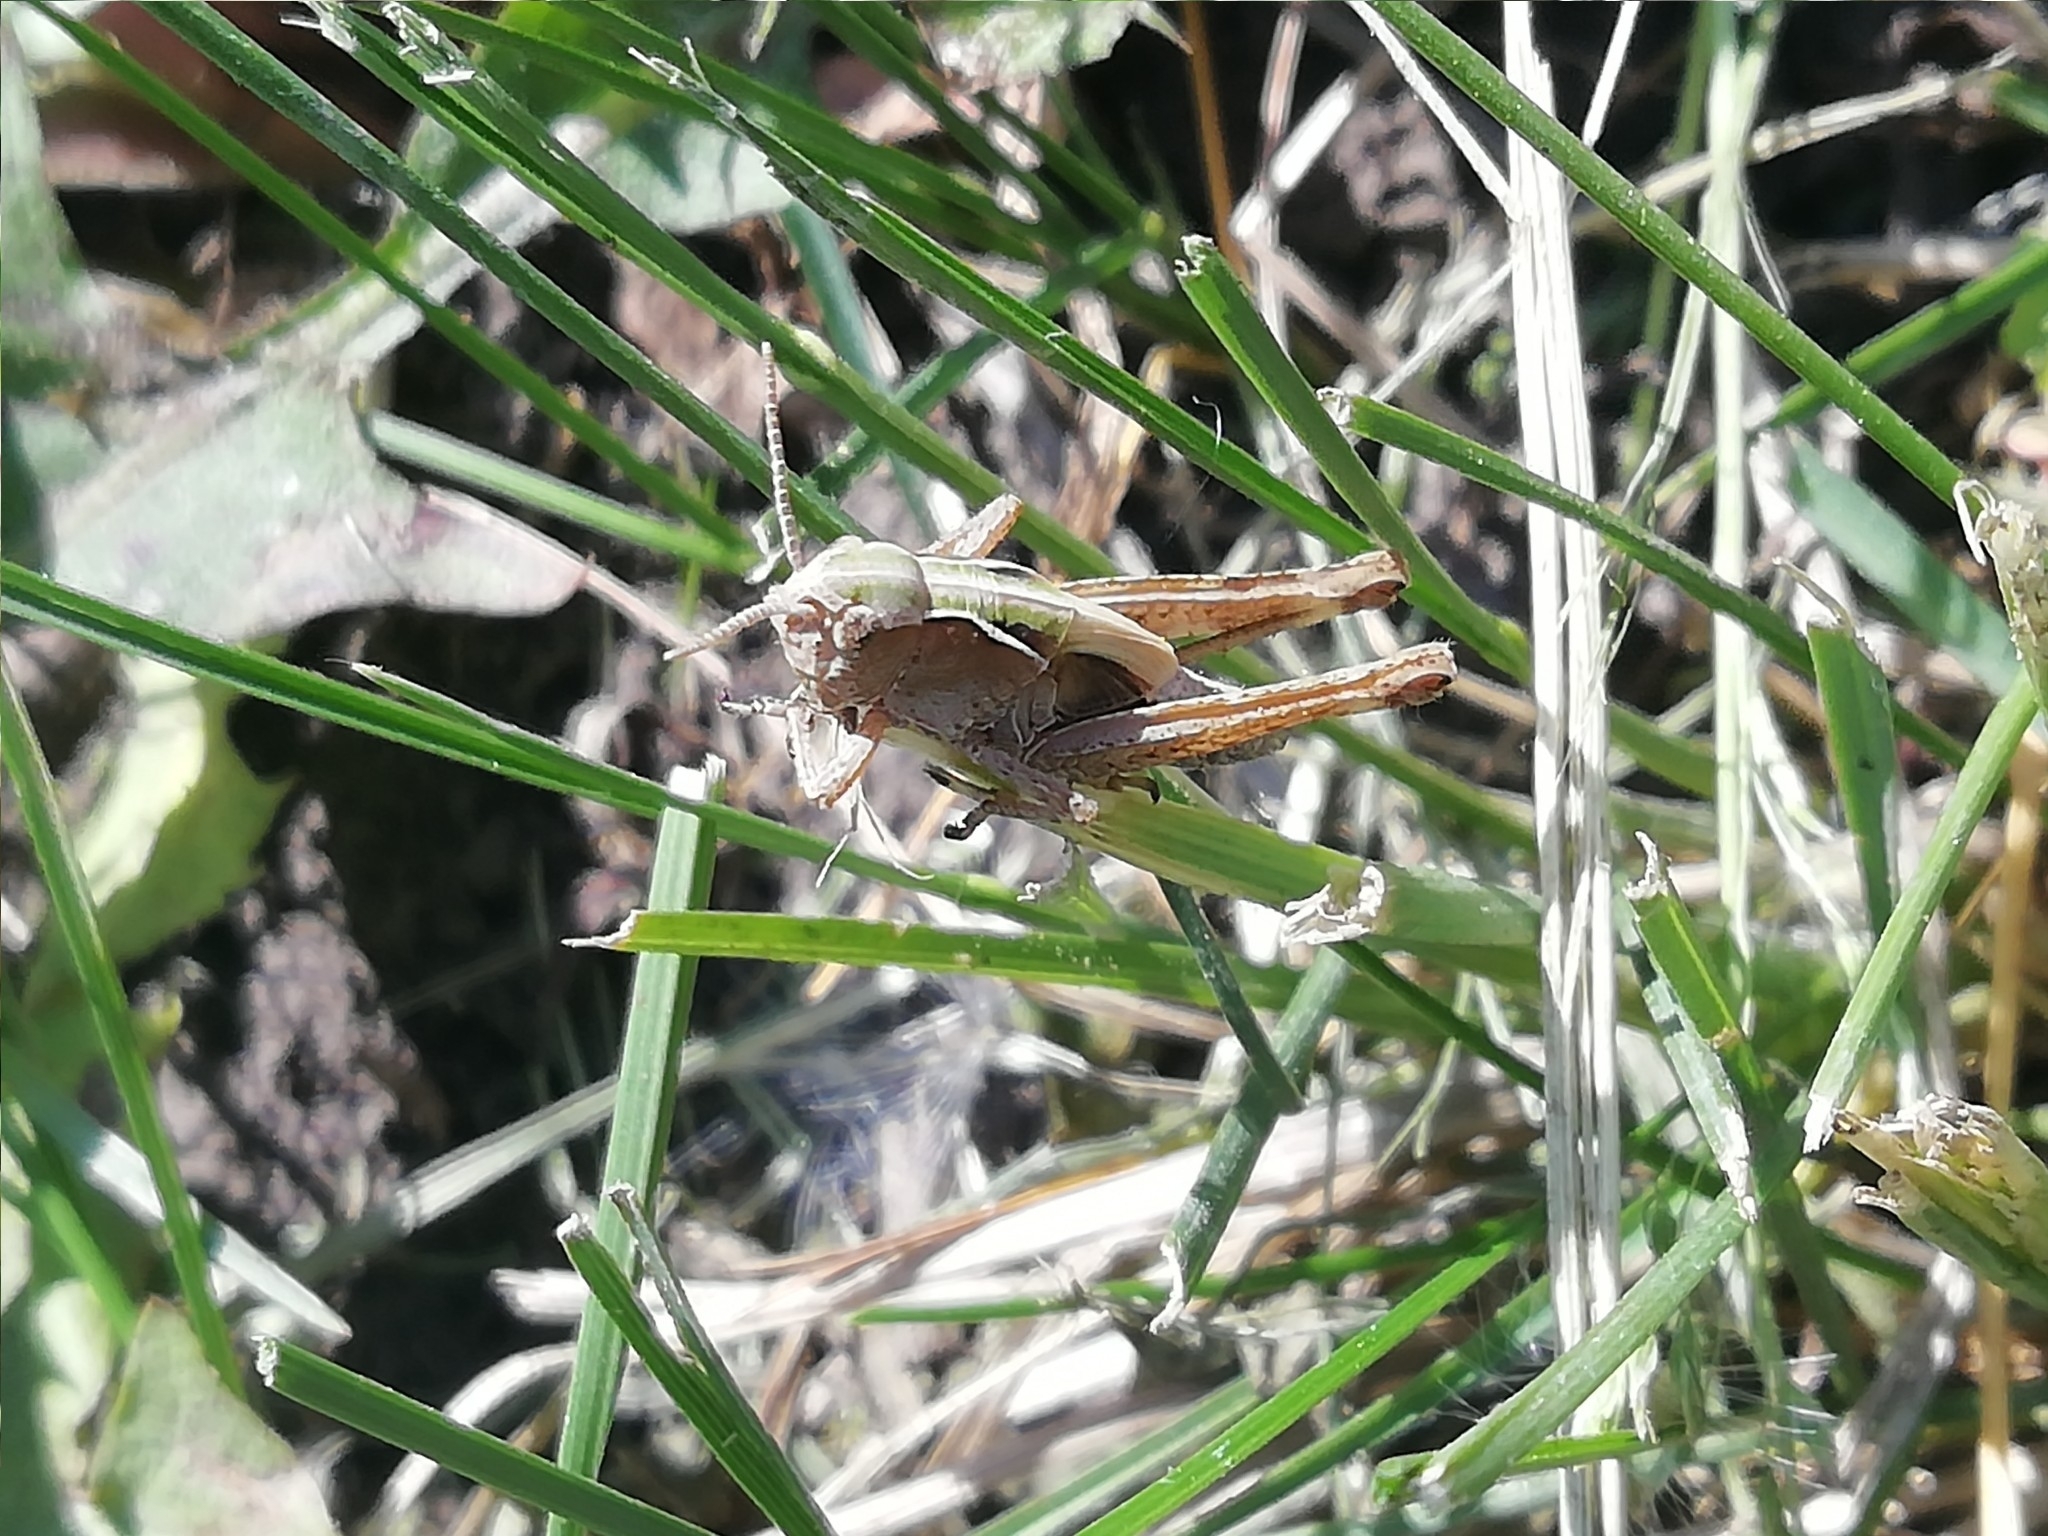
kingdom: Animalia
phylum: Arthropoda
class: Insecta
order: Orthoptera
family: Acrididae
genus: Omocestus
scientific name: Omocestus viridulus
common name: Common green grasshopper
